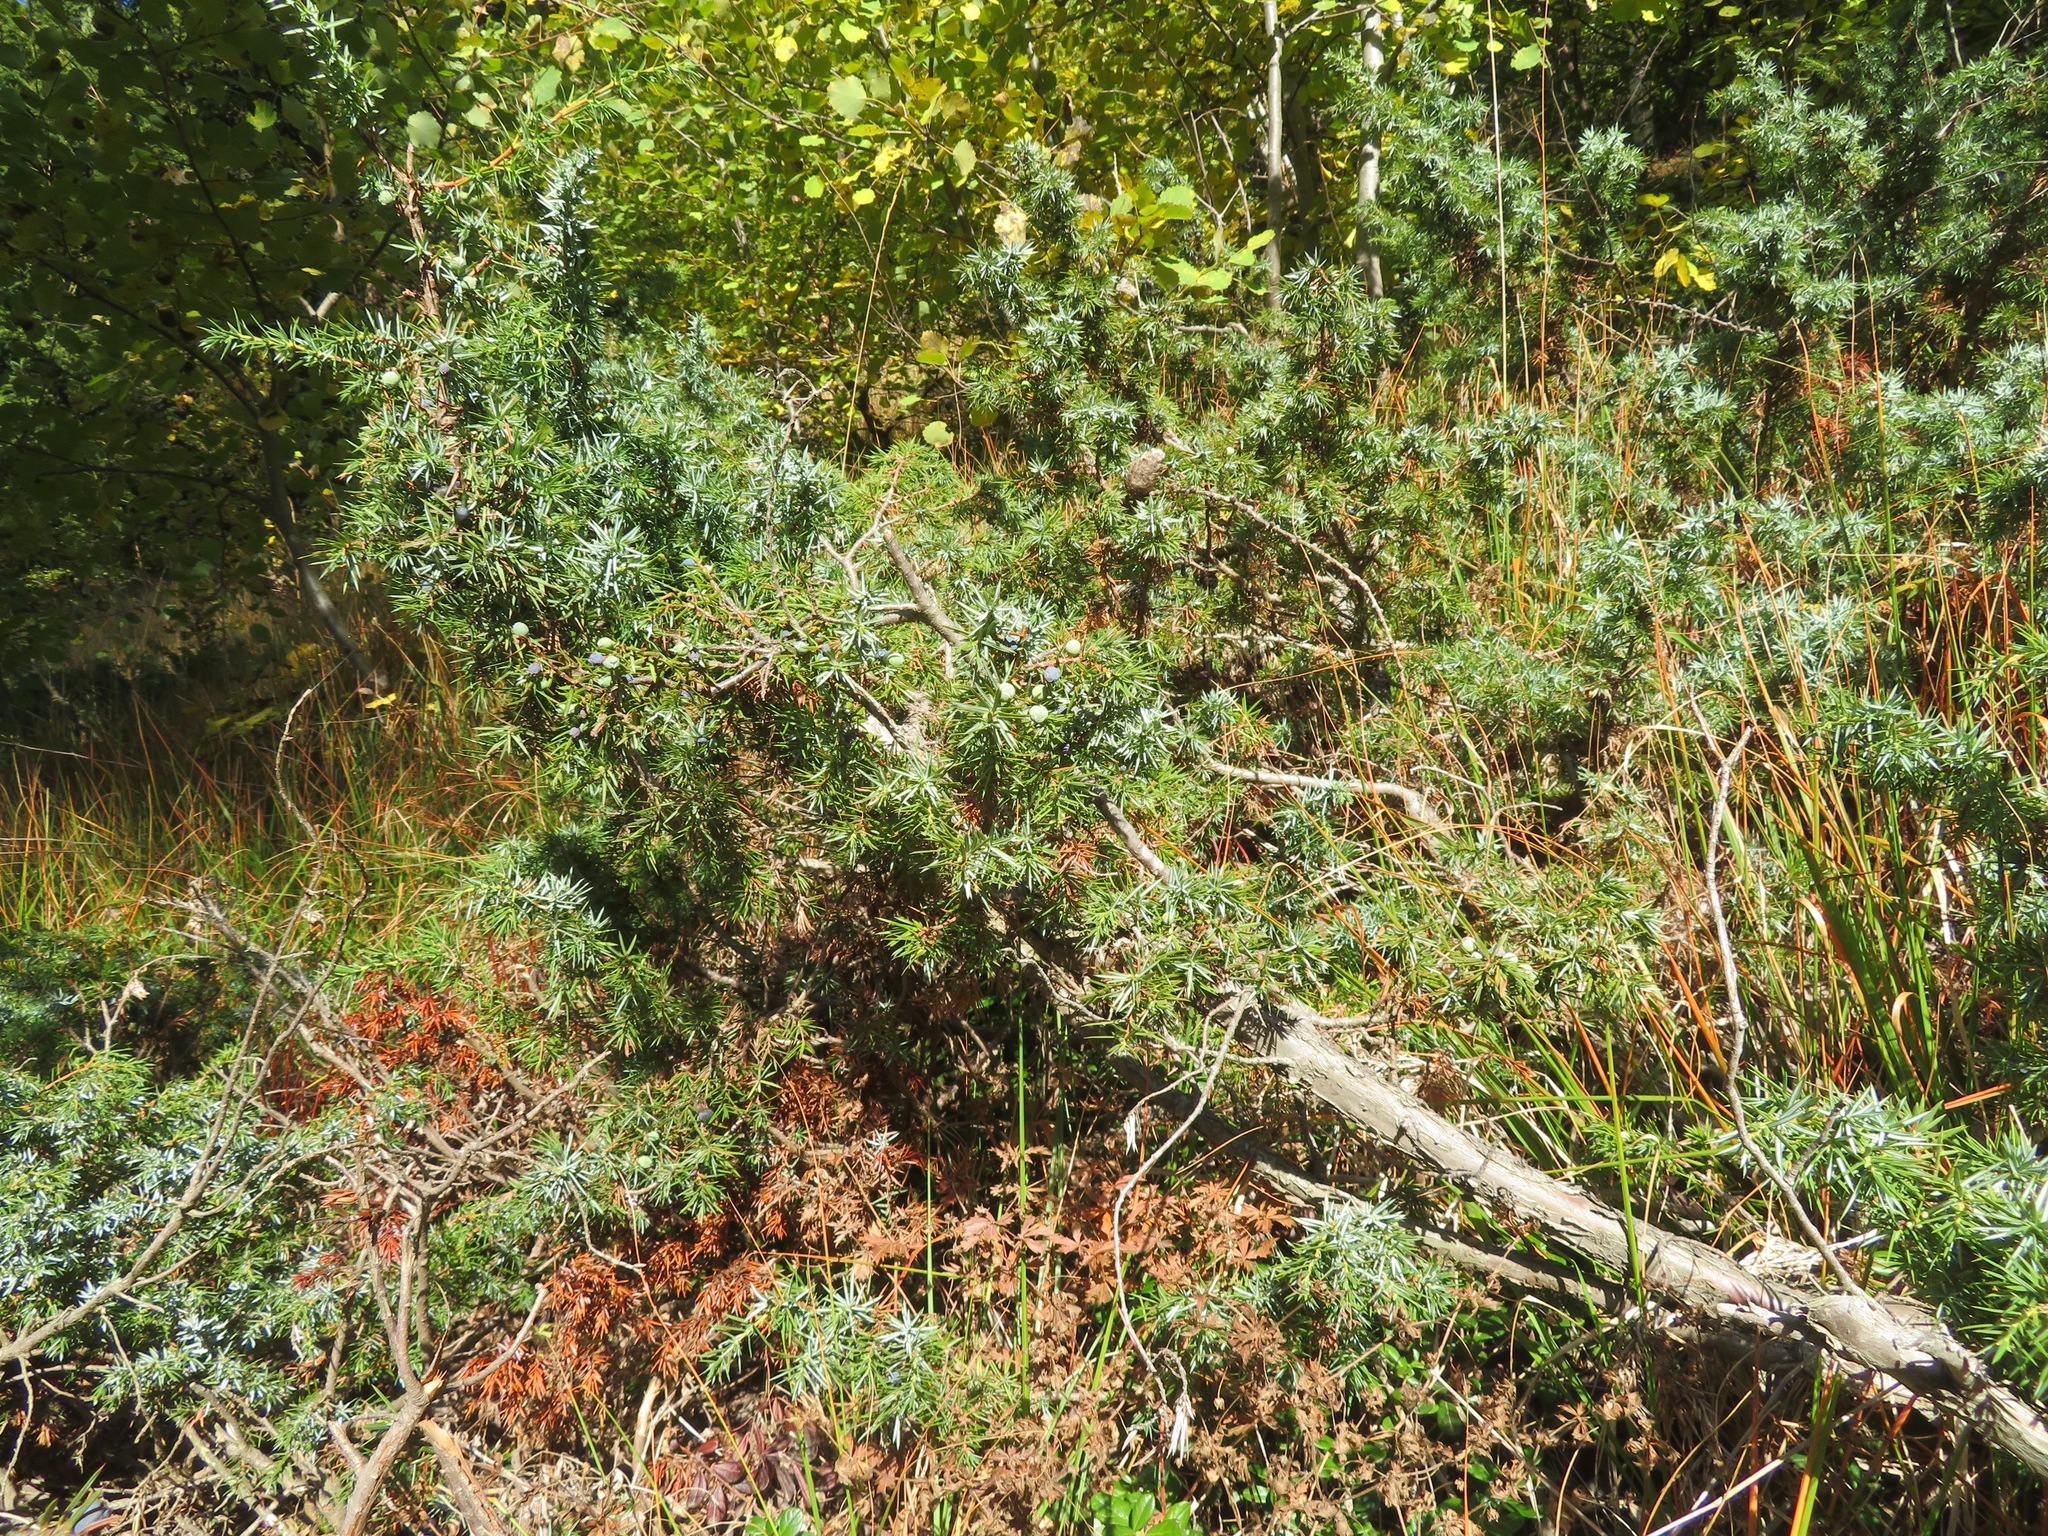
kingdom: Plantae
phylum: Tracheophyta
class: Pinopsida
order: Pinales
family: Cupressaceae
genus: Juniperus
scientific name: Juniperus communis
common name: Common juniper
